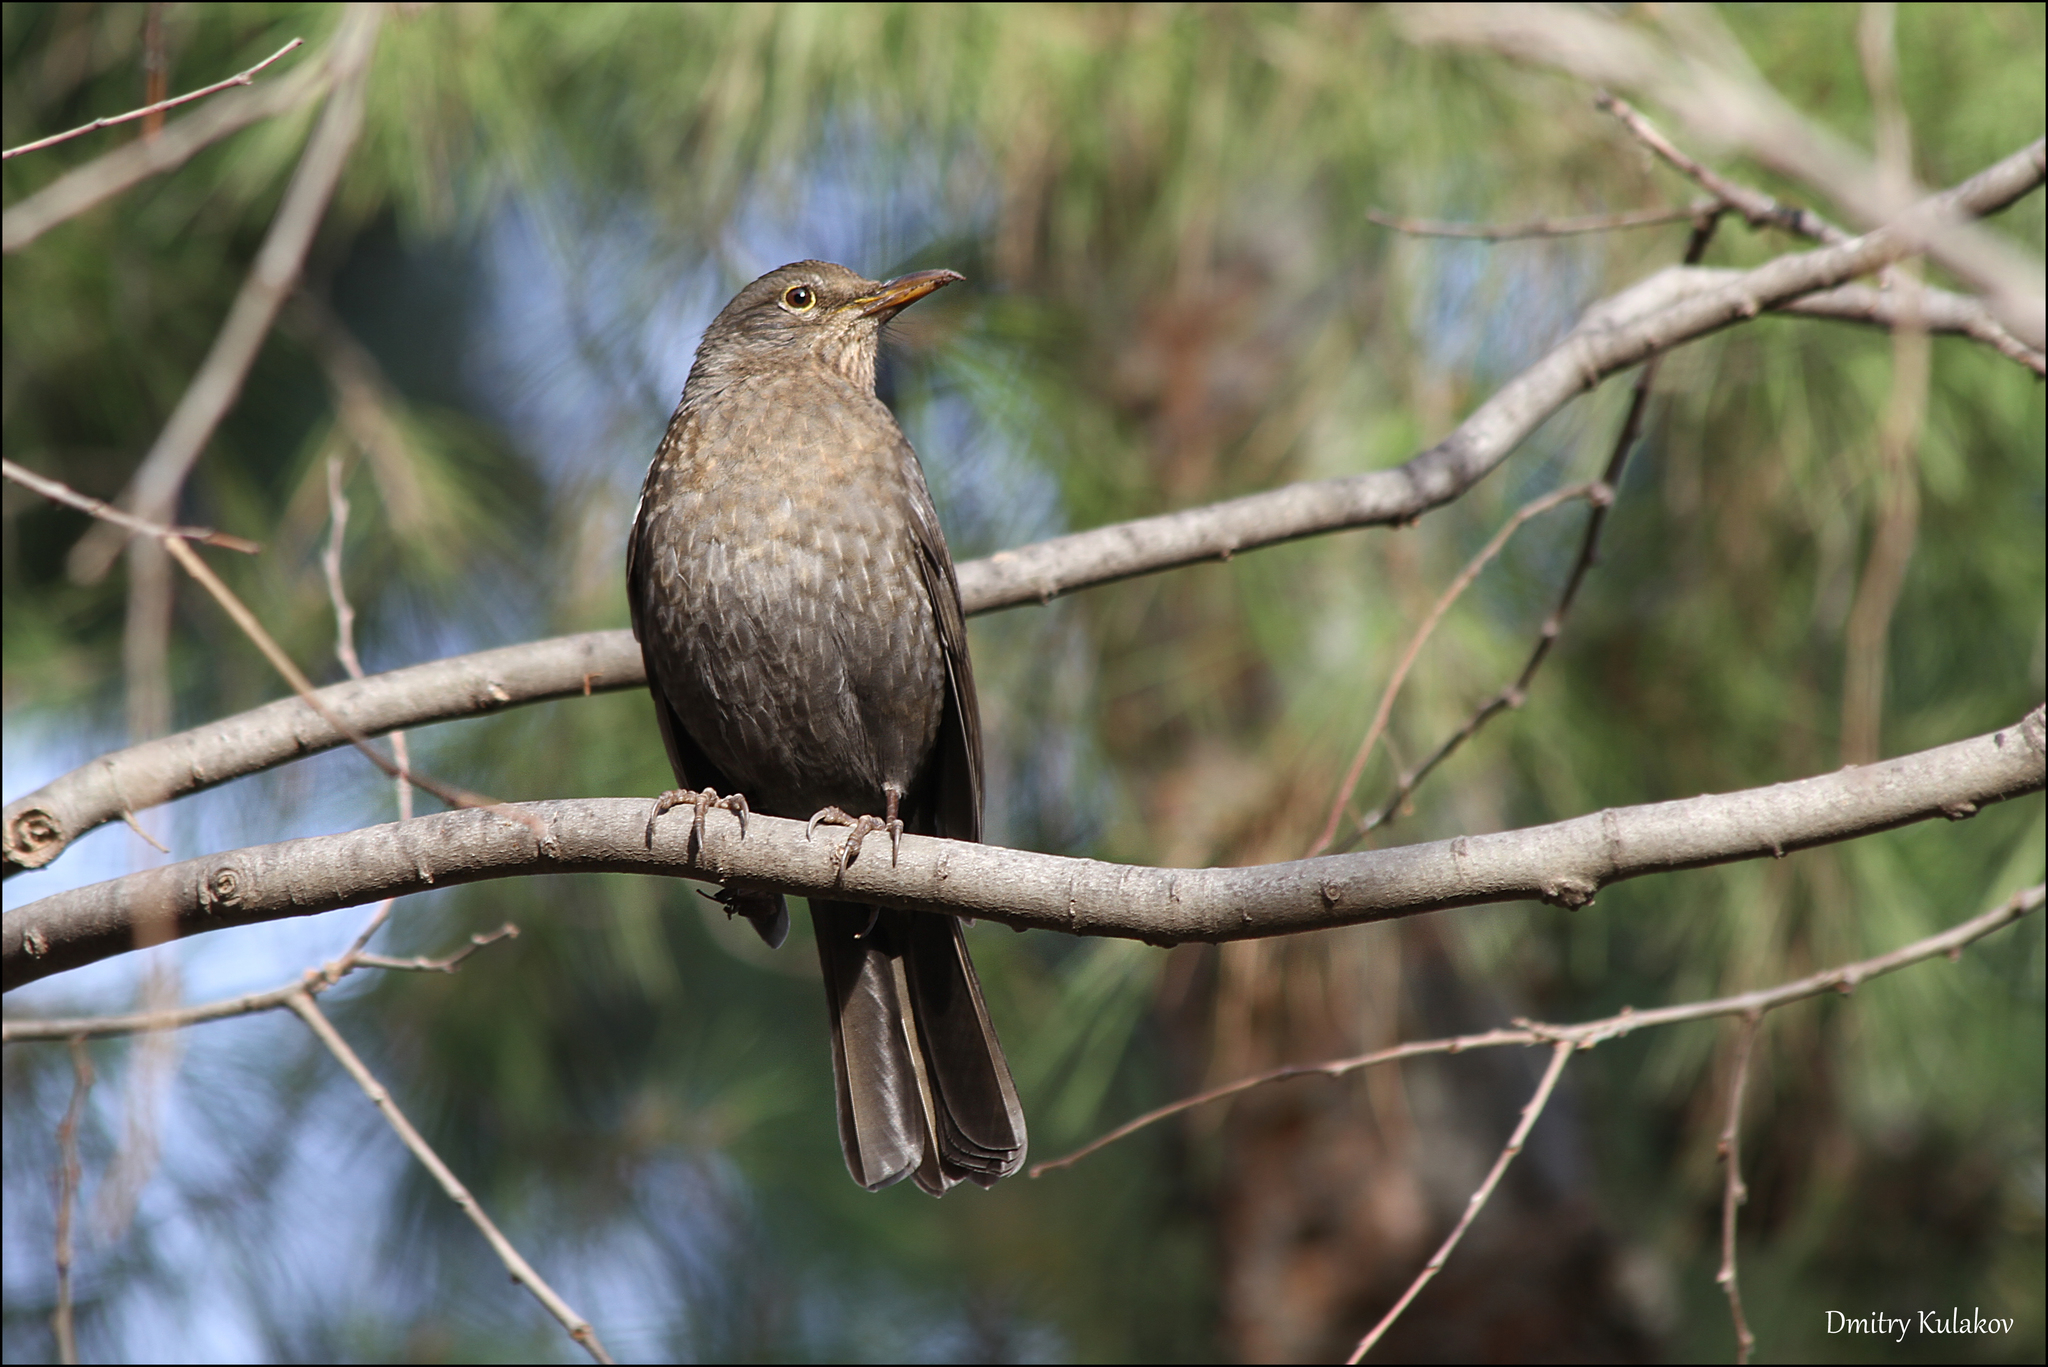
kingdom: Animalia
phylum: Chordata
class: Aves
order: Passeriformes
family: Turdidae
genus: Turdus
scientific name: Turdus merula
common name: Common blackbird
